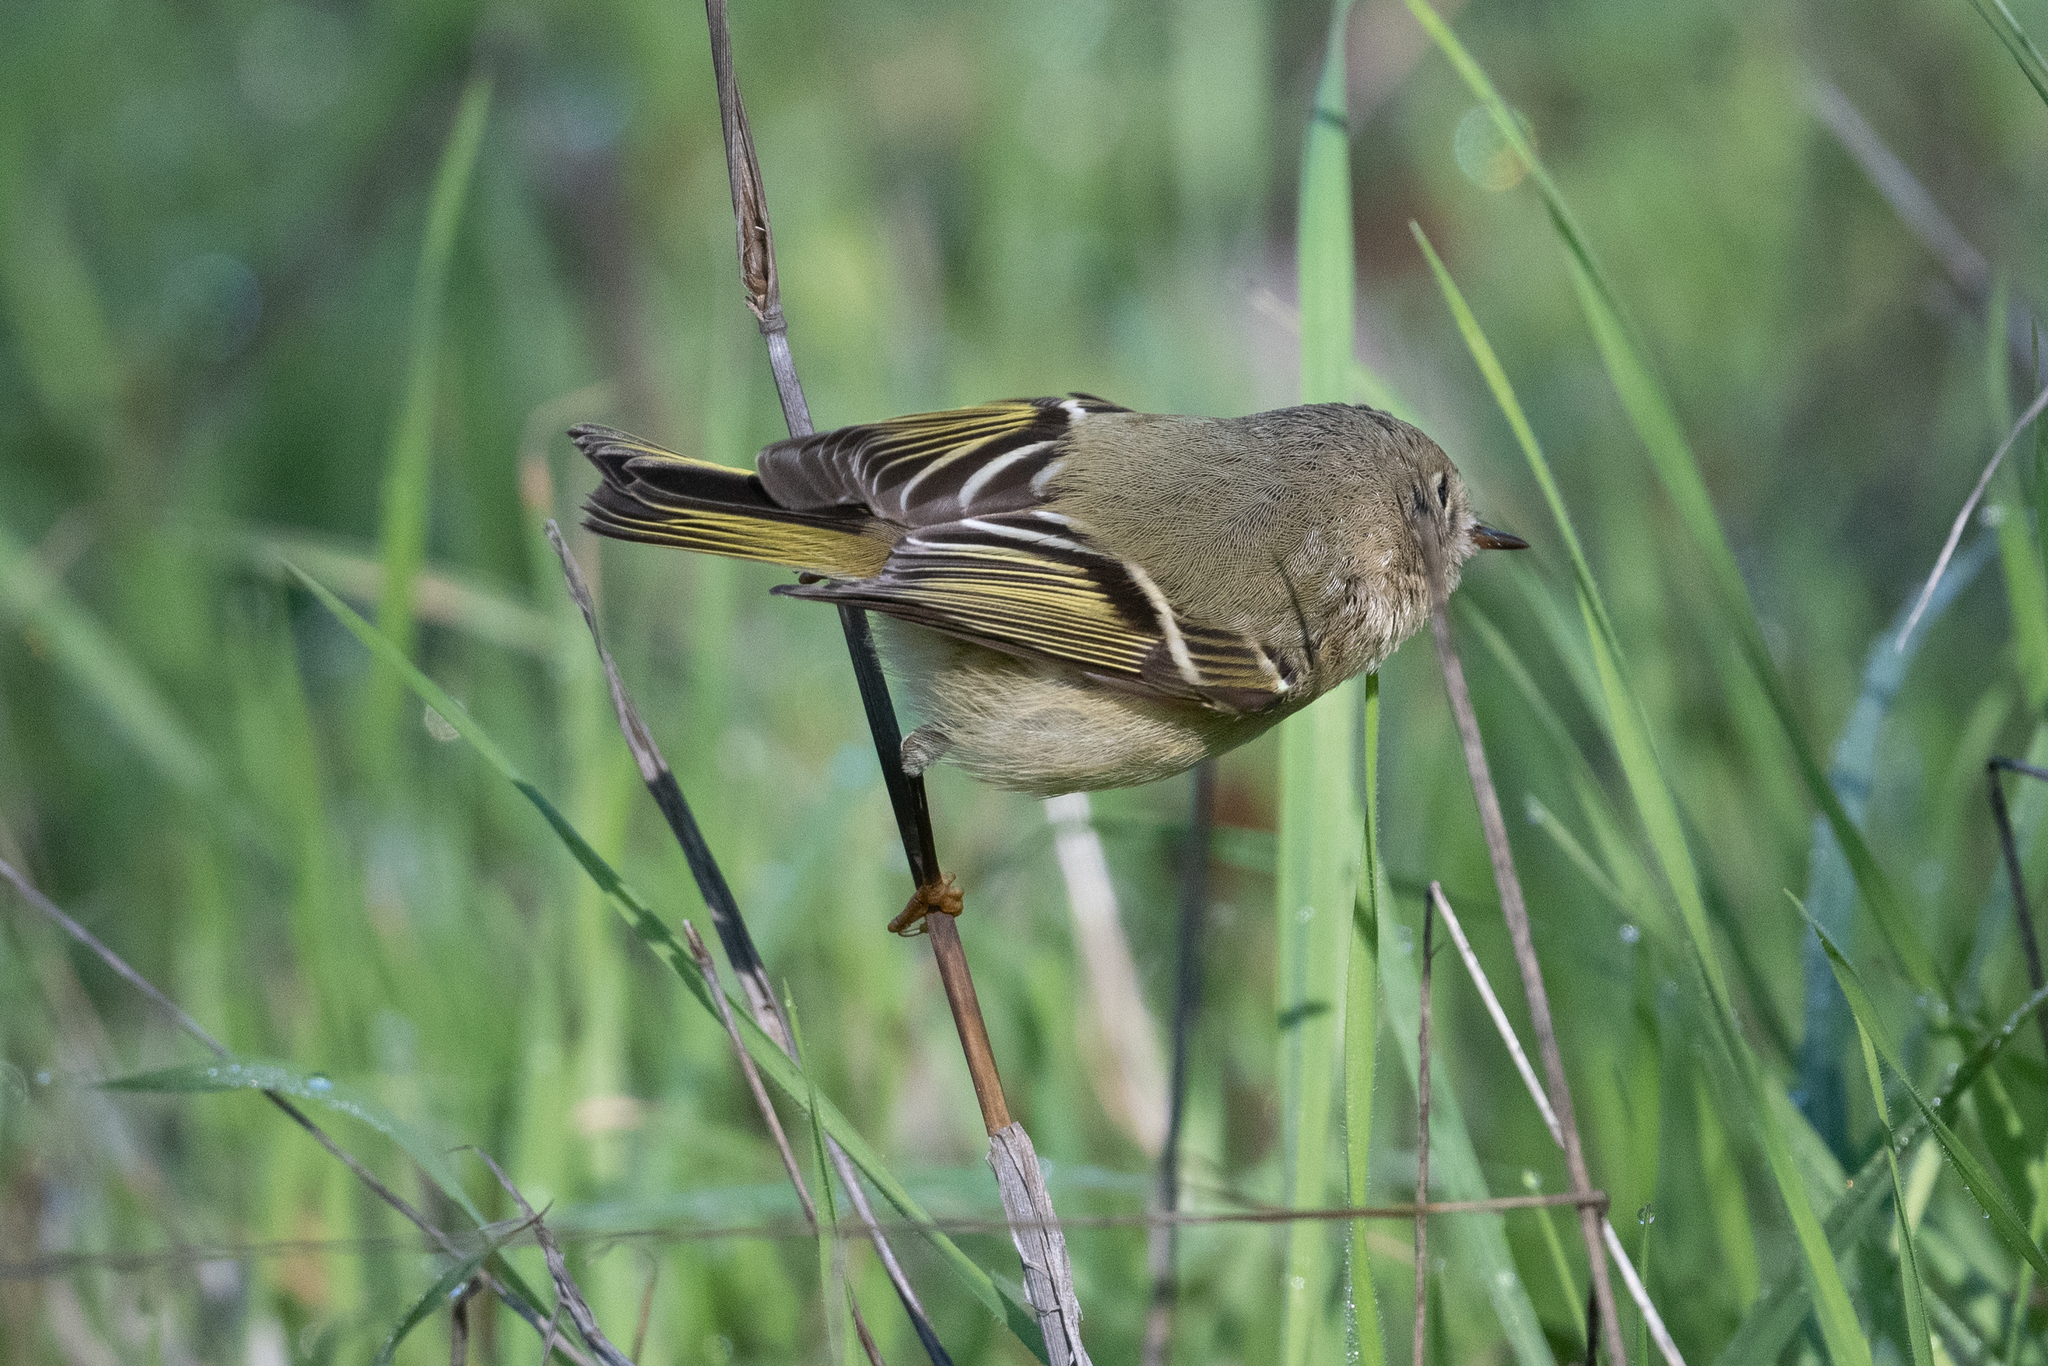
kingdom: Animalia
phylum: Chordata
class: Aves
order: Passeriformes
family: Regulidae
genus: Regulus
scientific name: Regulus calendula
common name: Ruby-crowned kinglet
